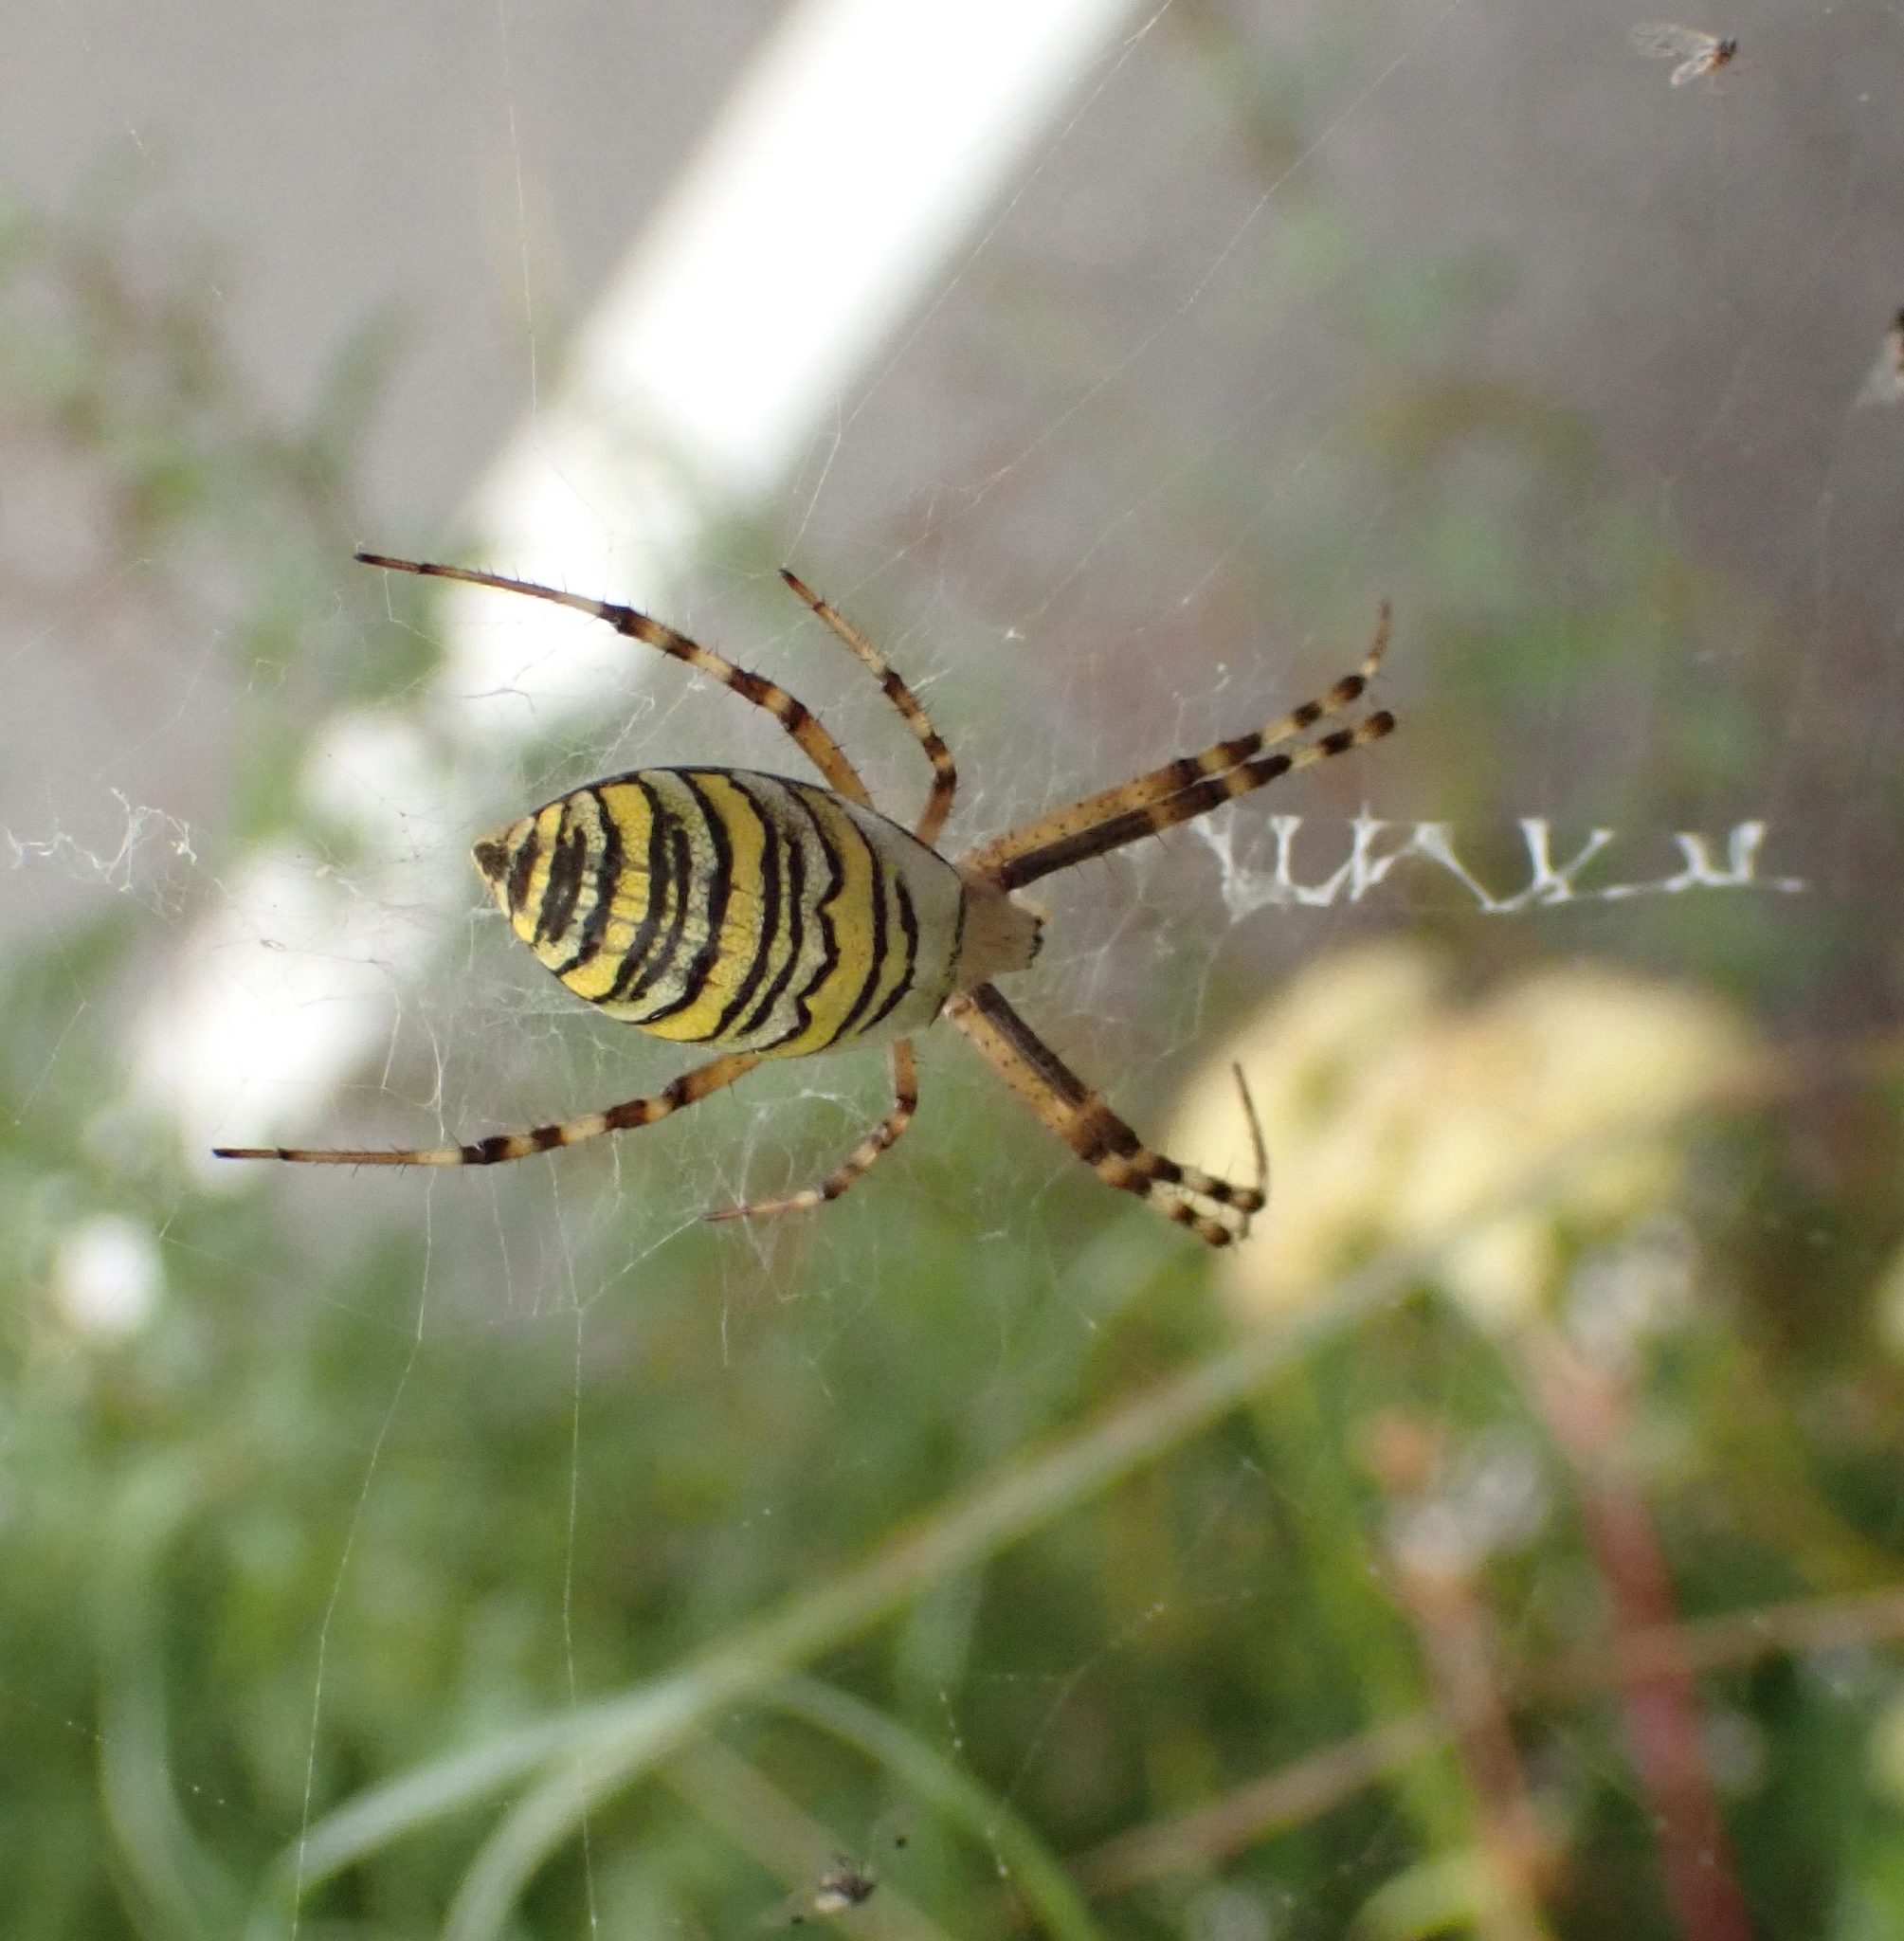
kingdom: Animalia
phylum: Arthropoda
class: Arachnida
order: Araneae
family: Araneidae
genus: Argiope
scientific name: Argiope bruennichi
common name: Wasp spider
